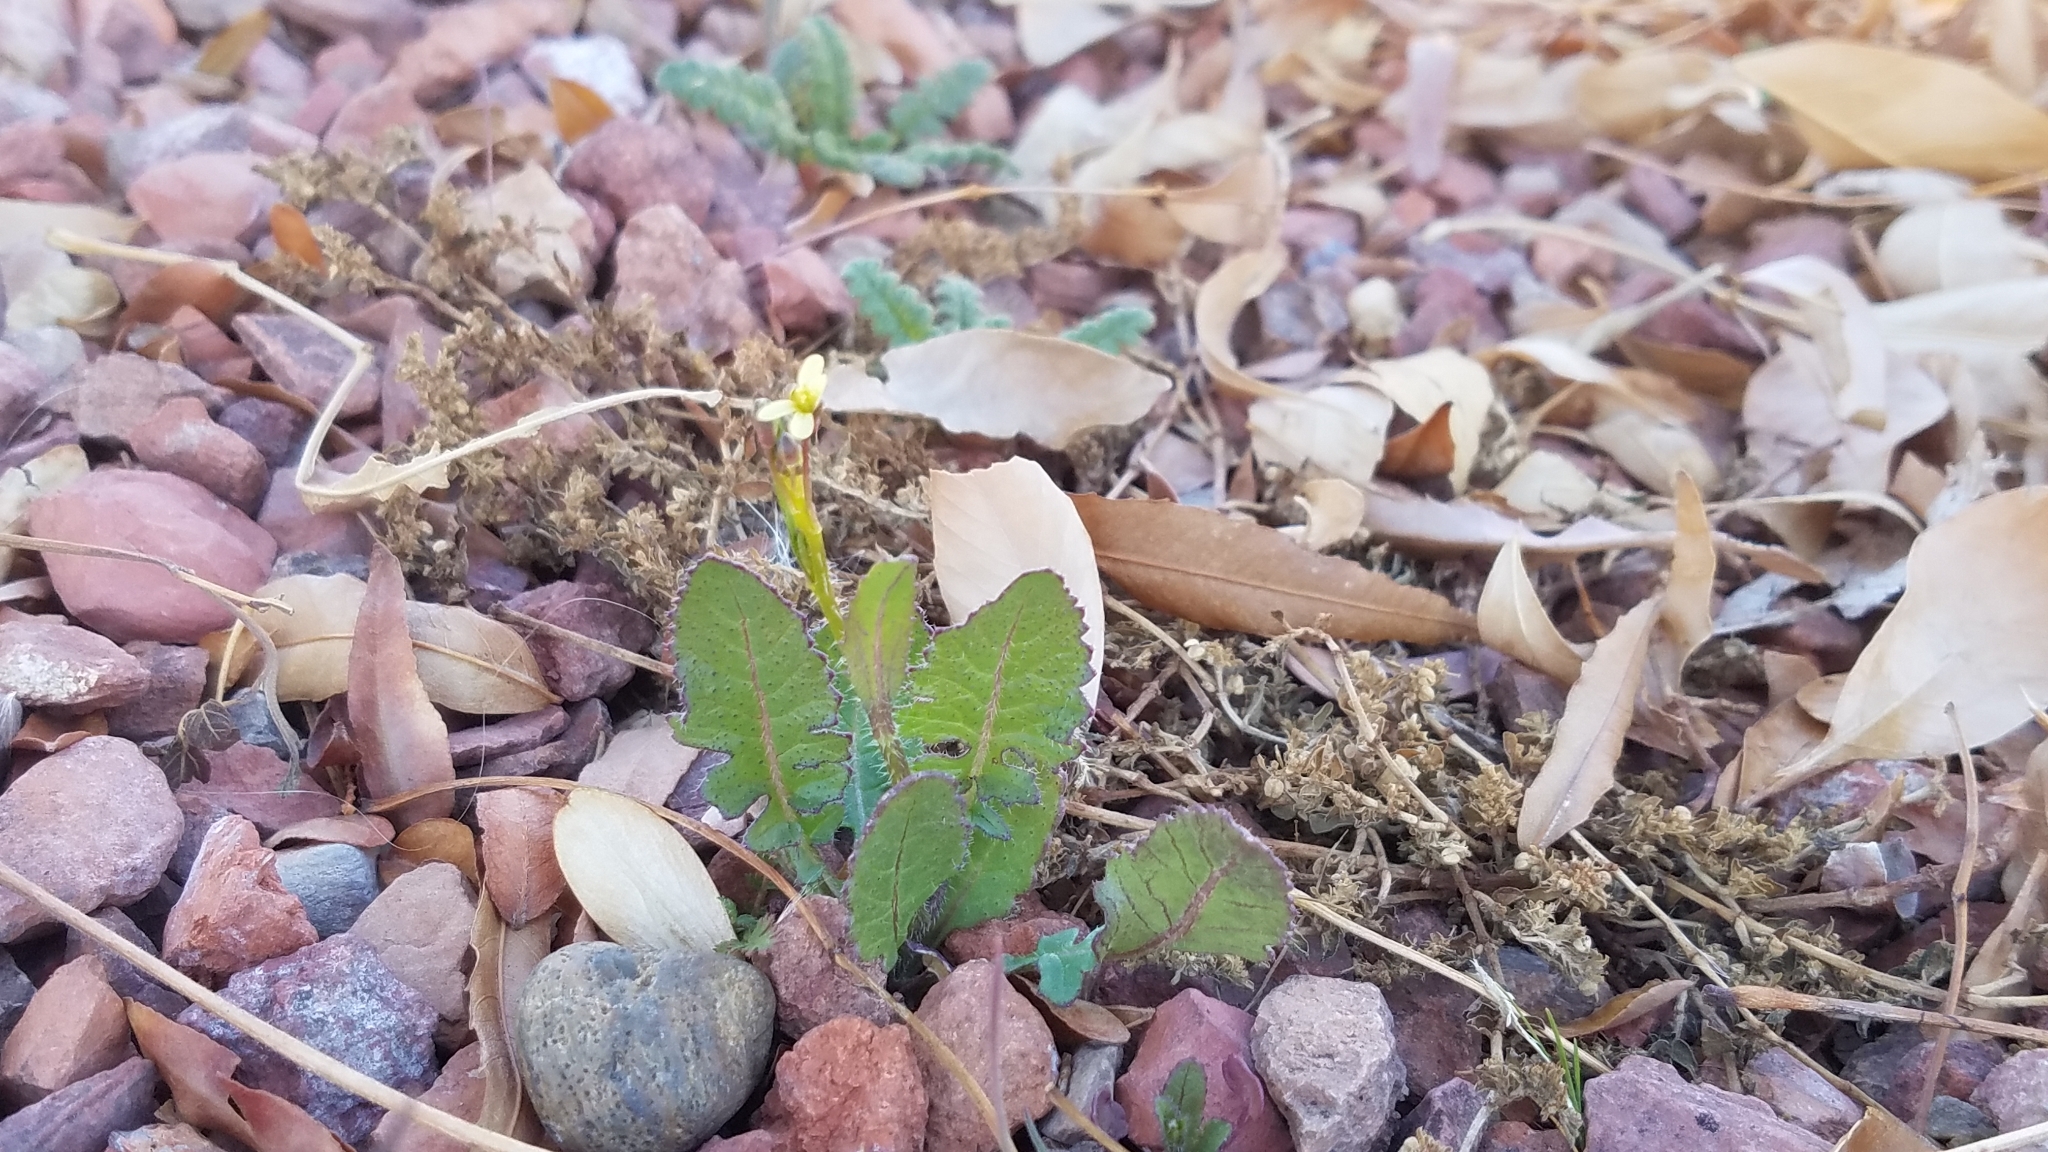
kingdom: Plantae
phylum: Tracheophyta
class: Magnoliopsida
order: Brassicales
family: Brassicaceae
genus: Brassica
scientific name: Brassica tournefortii
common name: Pale cabbage
